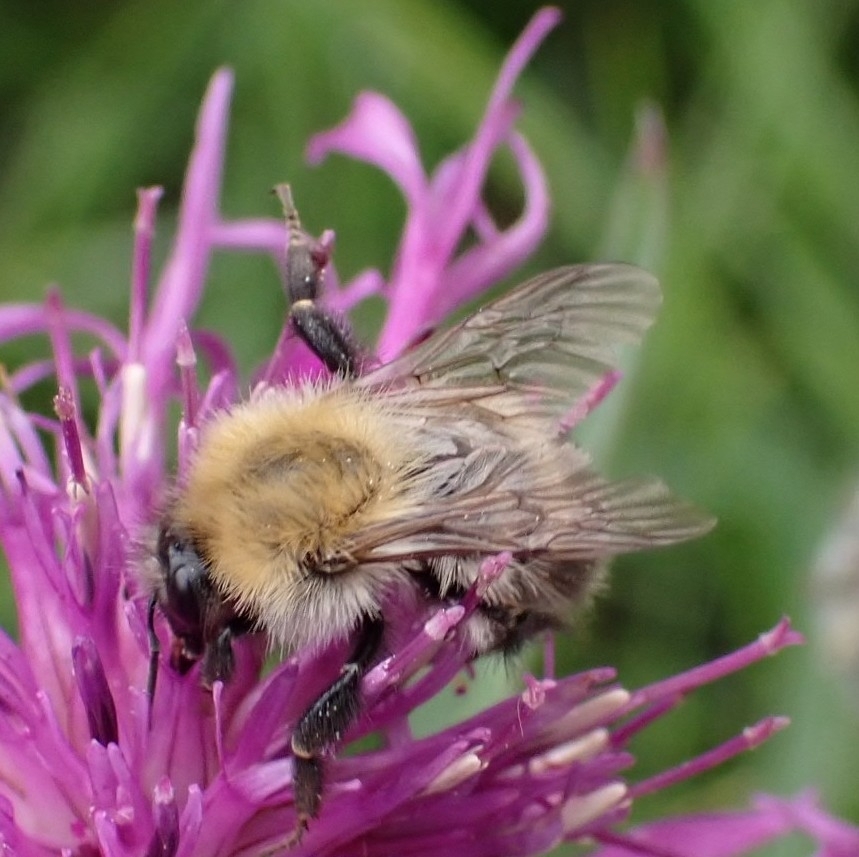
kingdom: Animalia
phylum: Arthropoda
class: Insecta
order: Hymenoptera
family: Apidae
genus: Bombus
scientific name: Bombus pascuorum
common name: Common carder bee
